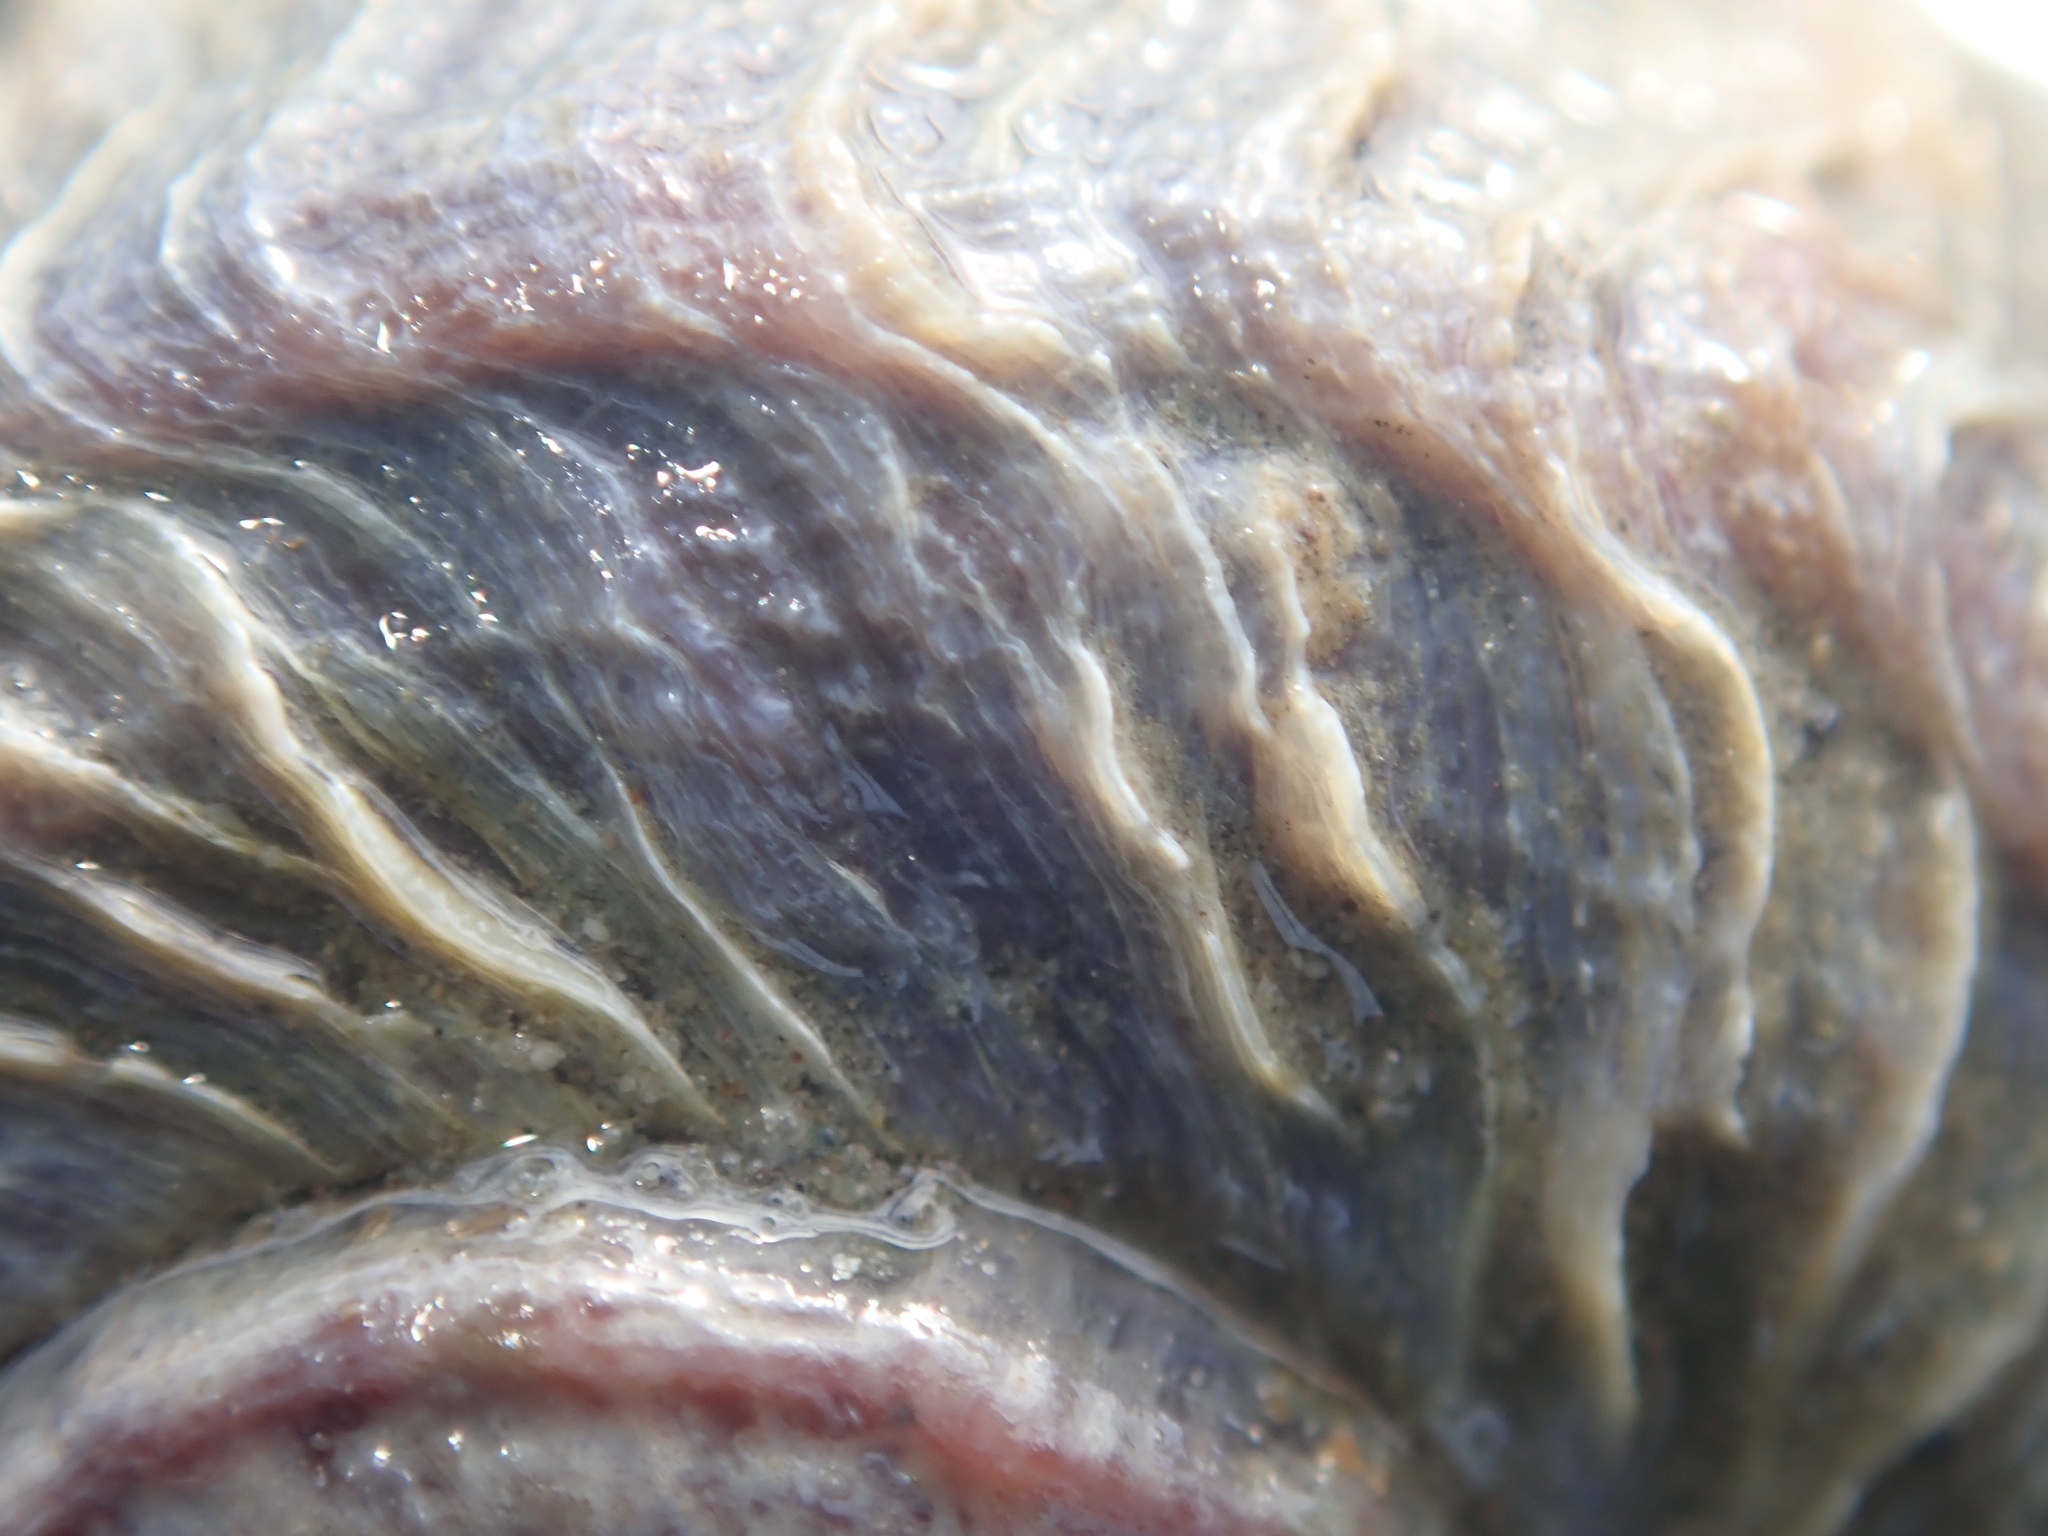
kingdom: Animalia
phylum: Mollusca
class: Gastropoda
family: Amphibolidae
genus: Amphibola
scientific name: Amphibola crenata
